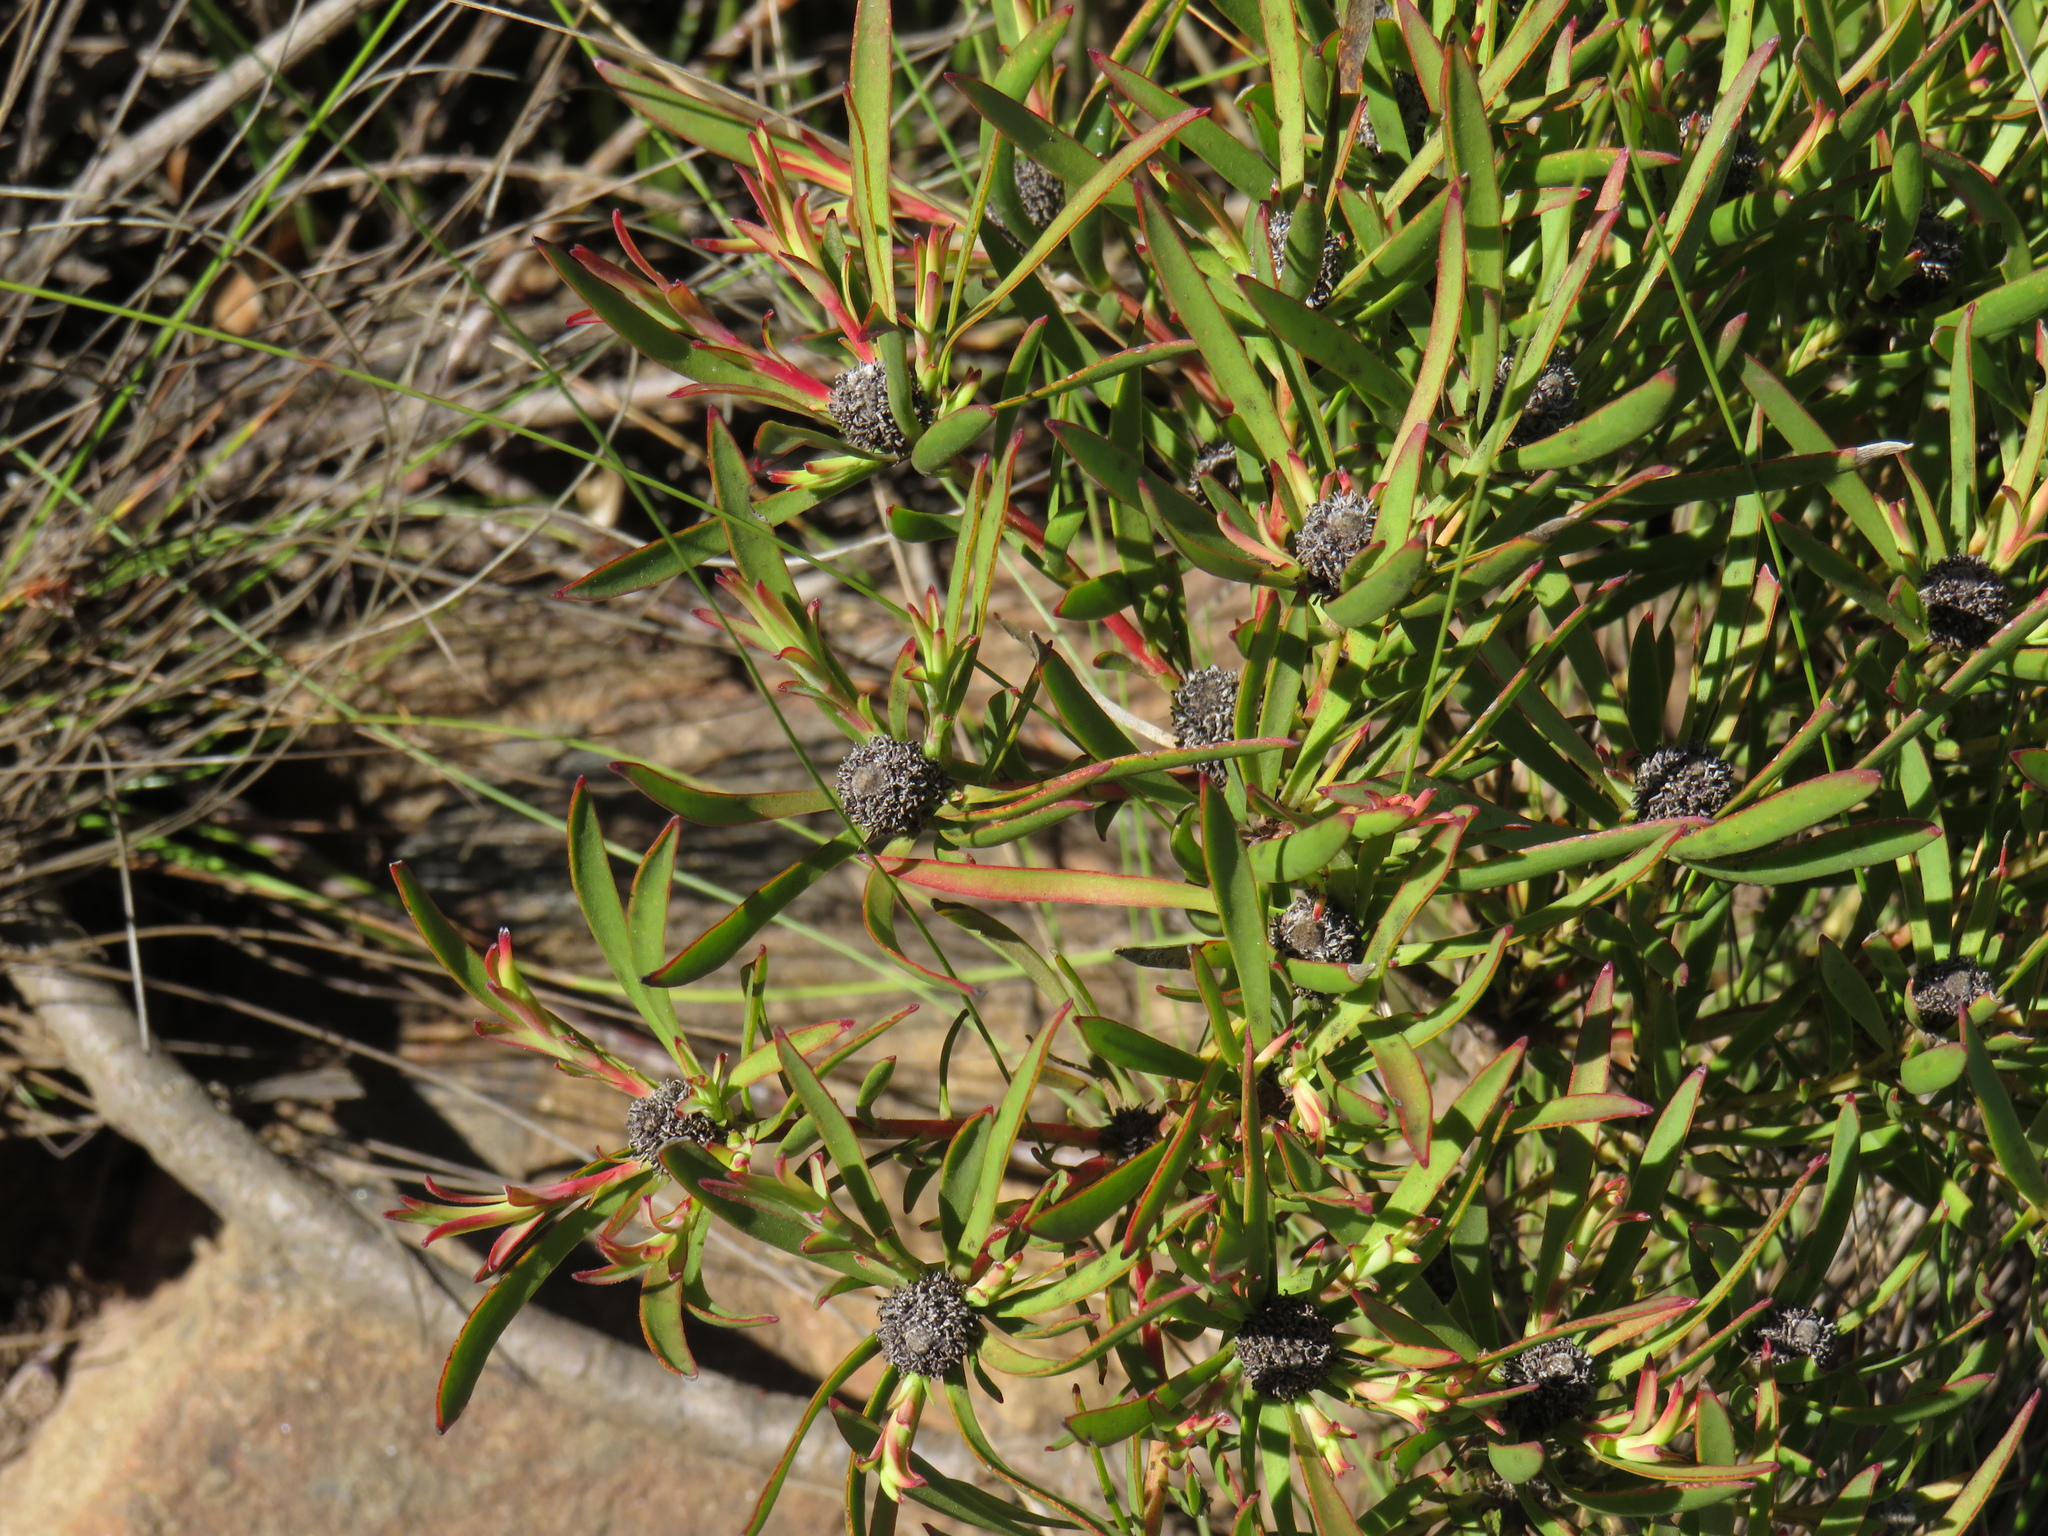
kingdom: Plantae
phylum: Tracheophyta
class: Magnoliopsida
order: Proteales
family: Proteaceae
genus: Leucadendron
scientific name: Leucadendron salignum
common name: Common sunshine conebush
